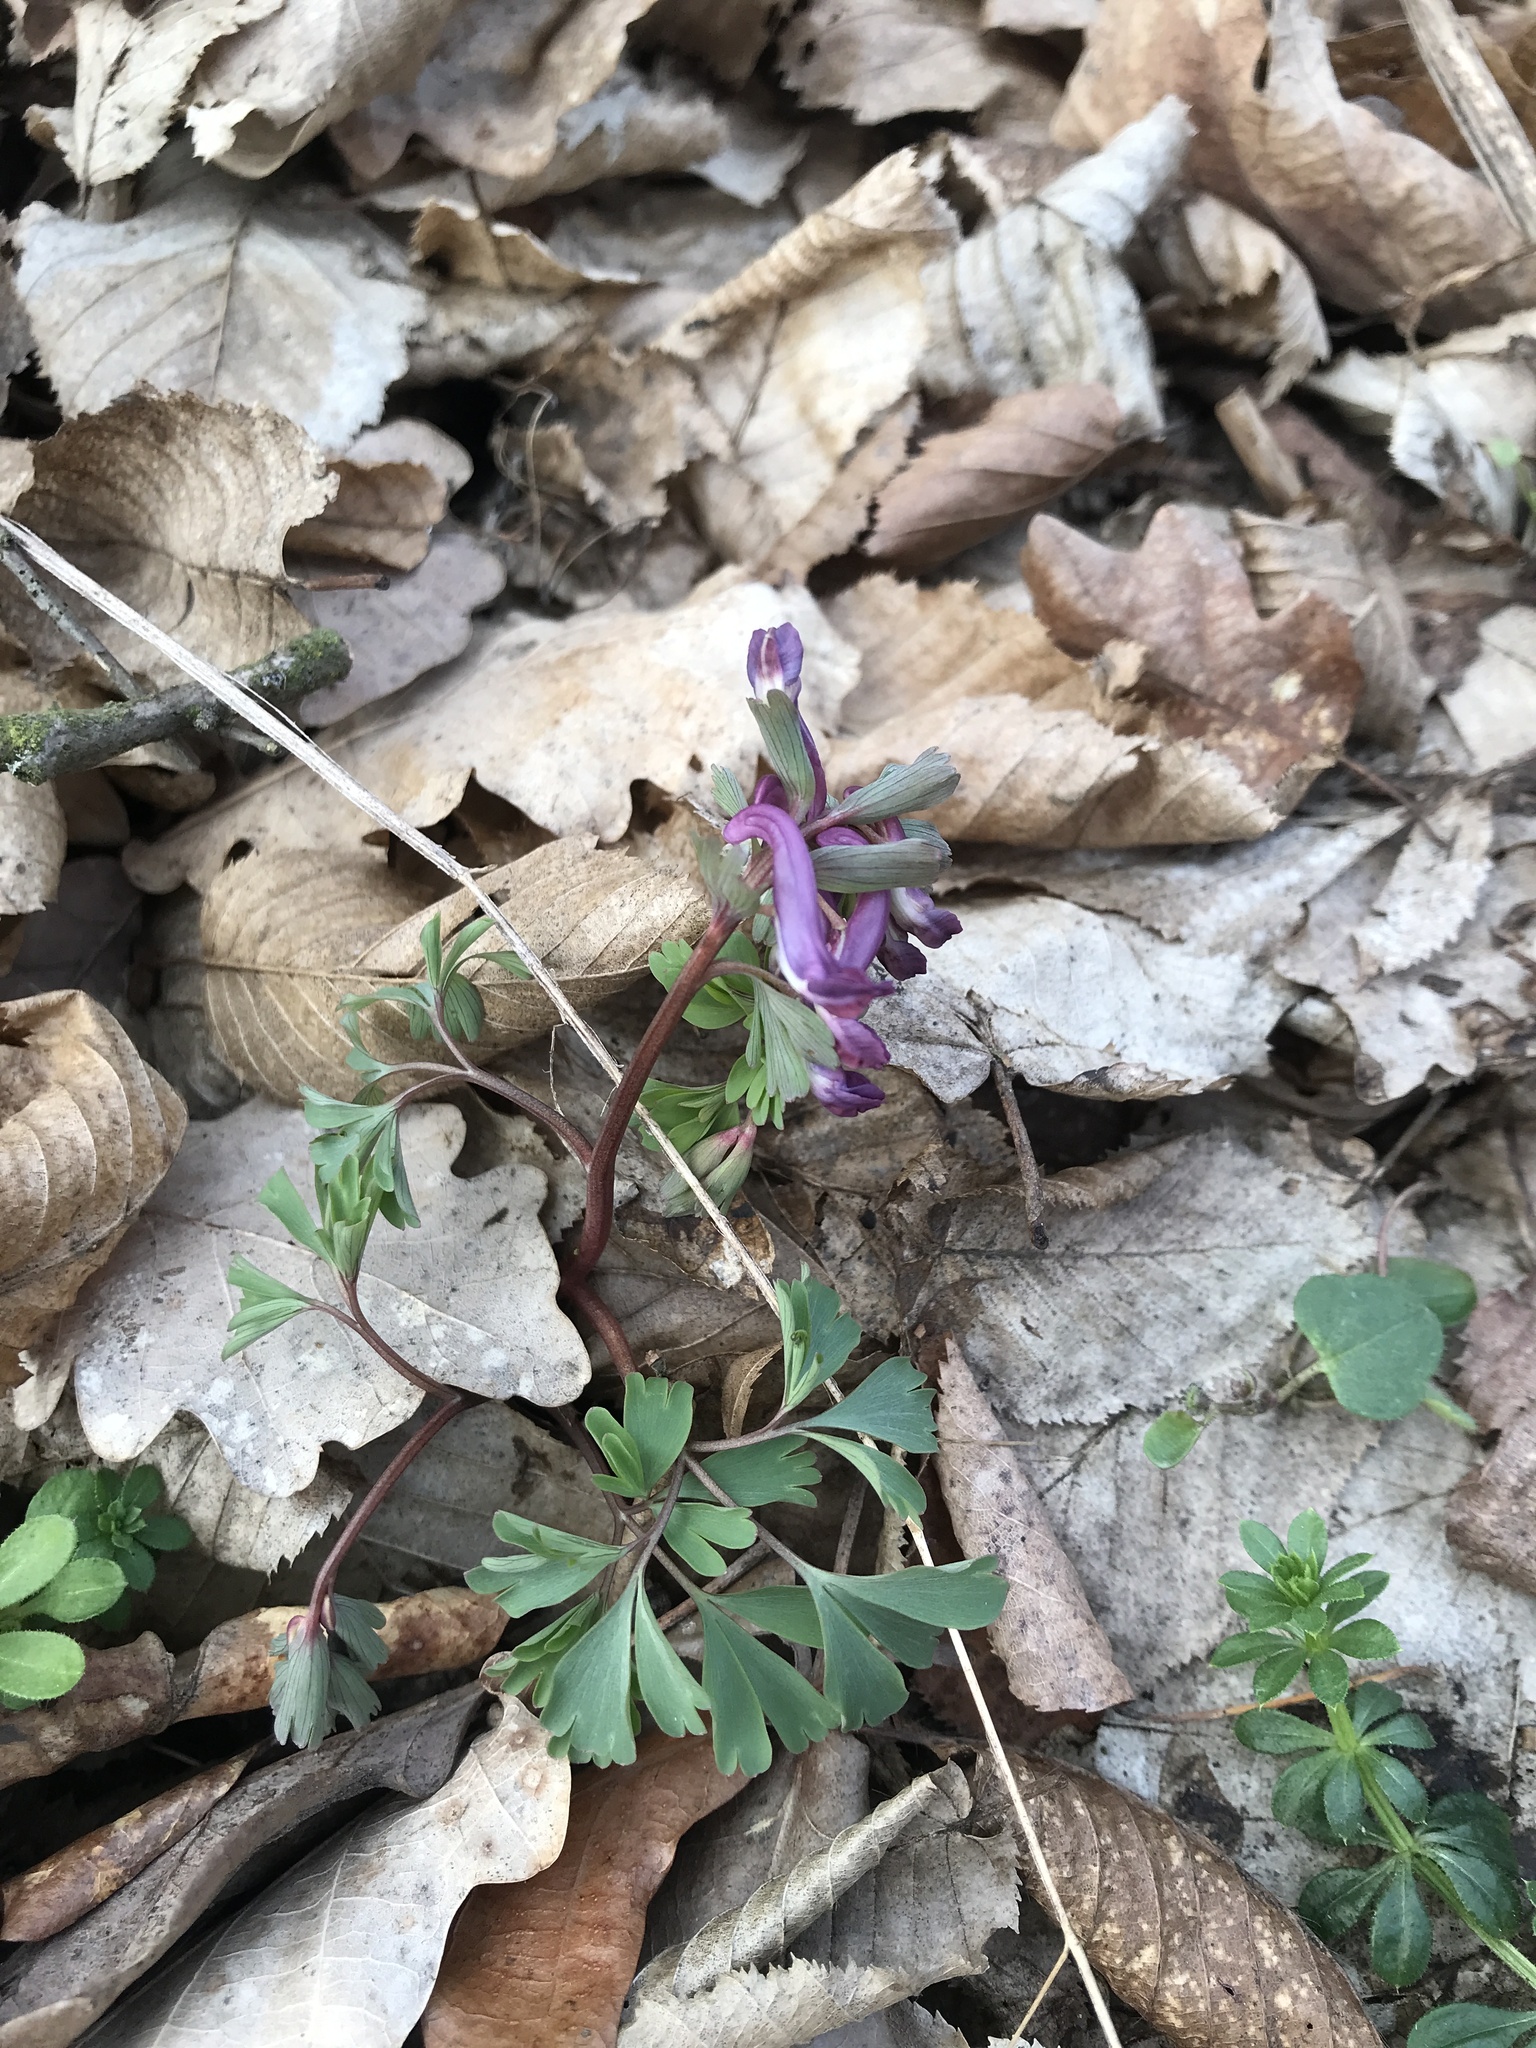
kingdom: Plantae
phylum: Tracheophyta
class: Magnoliopsida
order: Ranunculales
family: Papaveraceae
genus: Corydalis
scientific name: Corydalis solida
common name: Bird-in-a-bush
